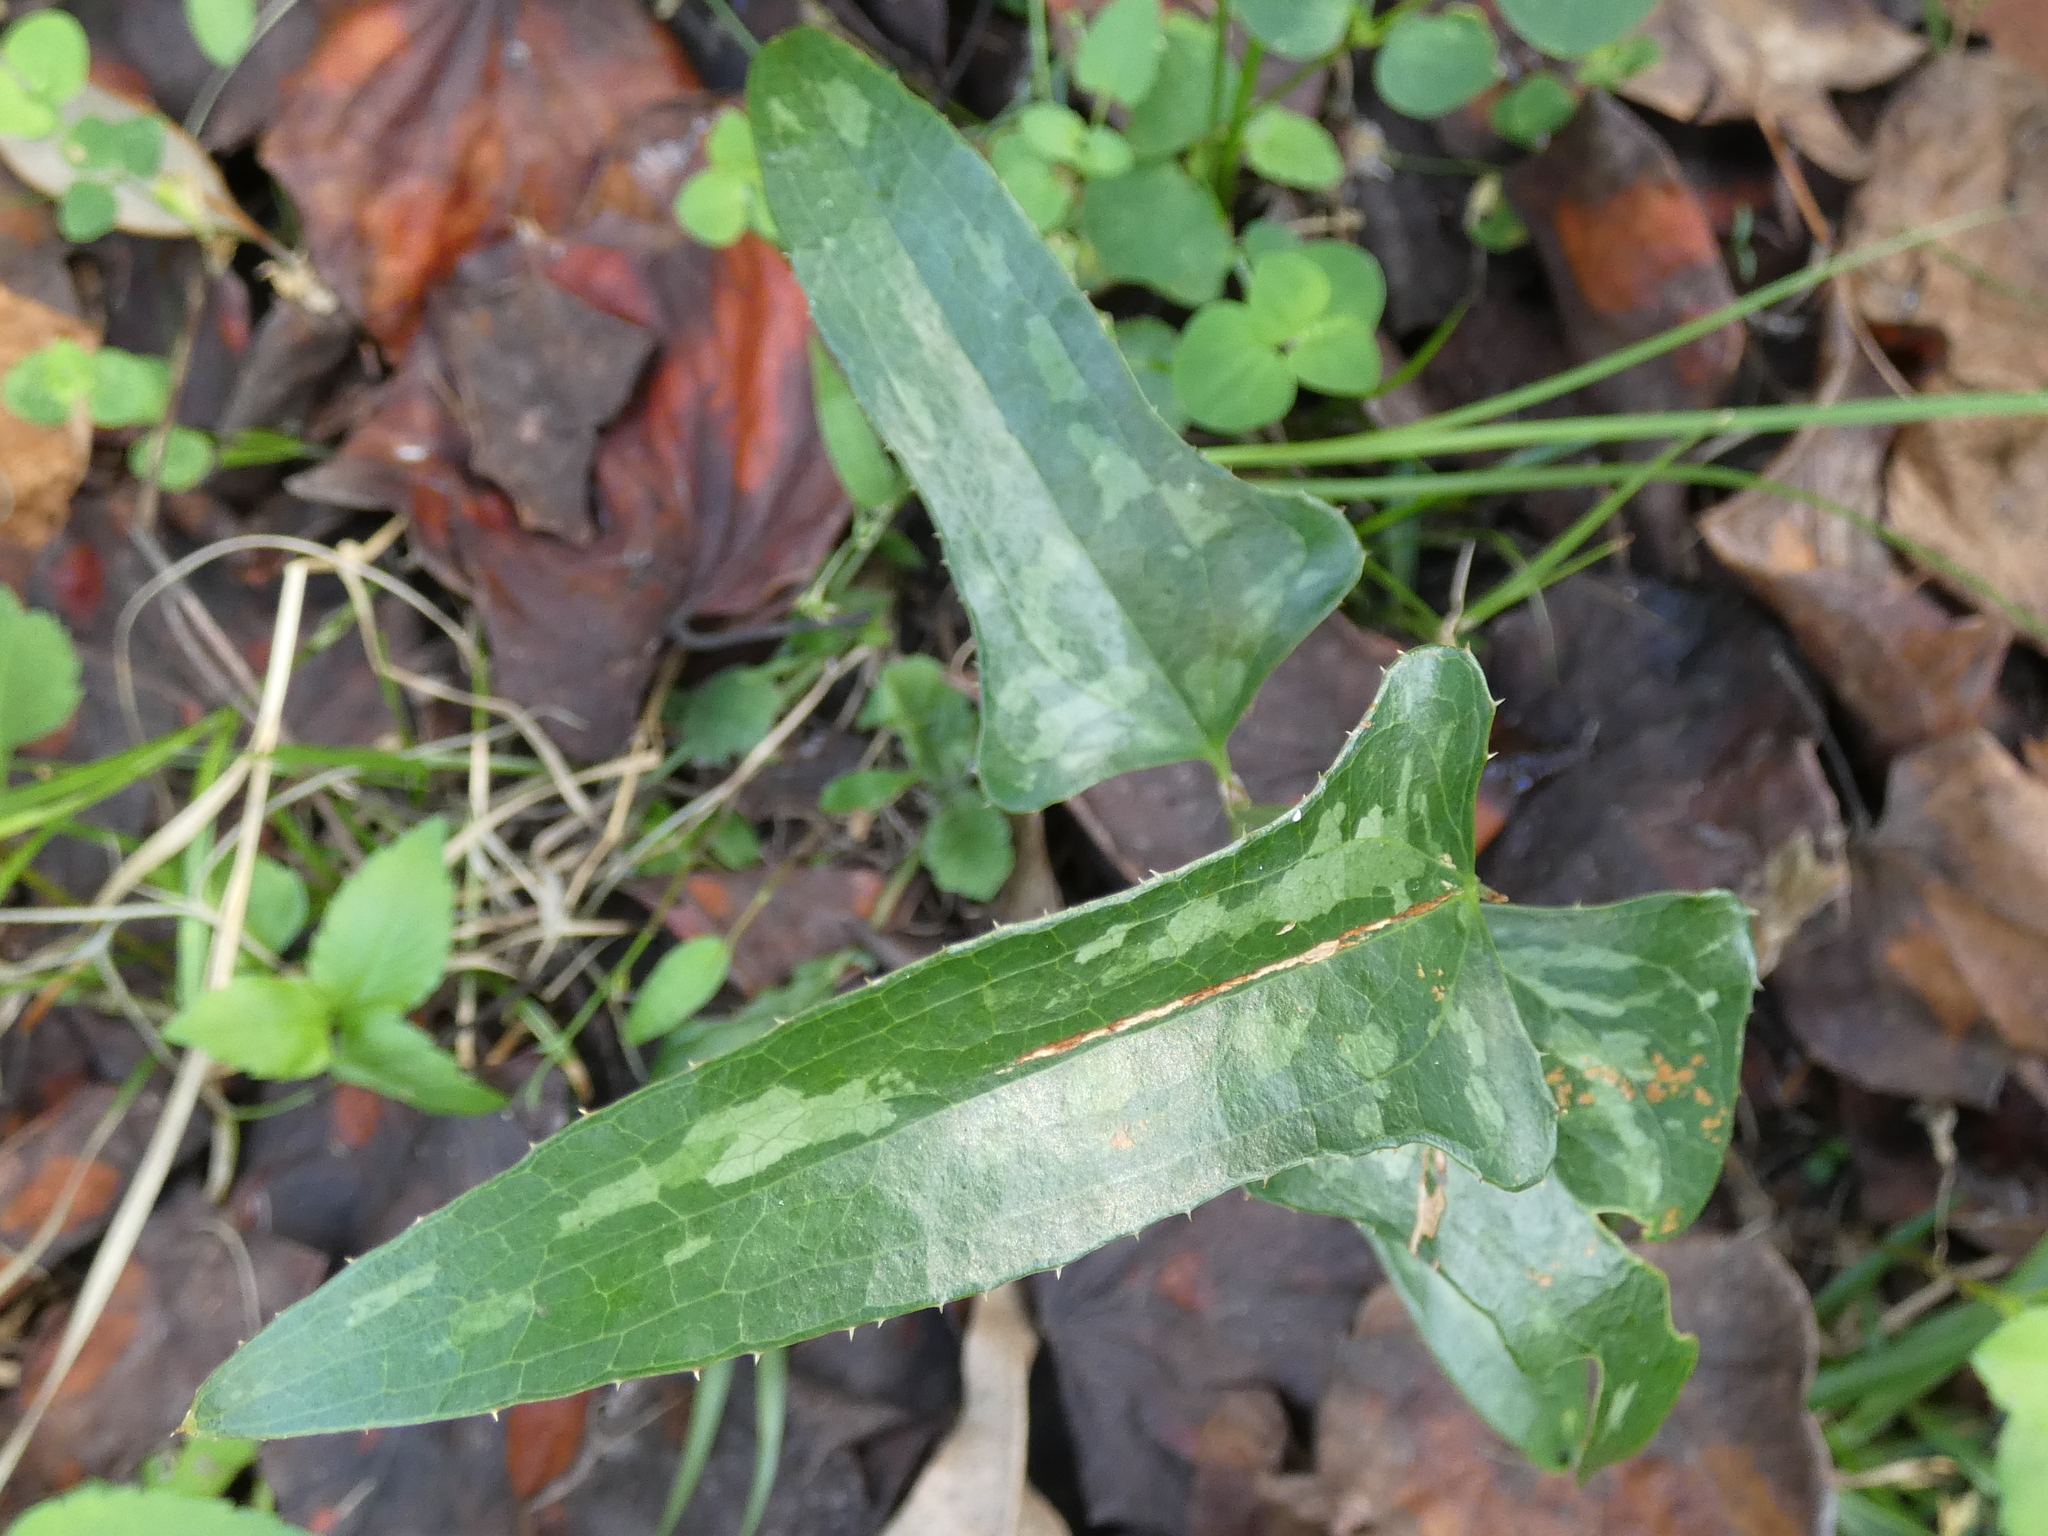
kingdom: Plantae
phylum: Tracheophyta
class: Liliopsida
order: Liliales
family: Smilacaceae
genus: Smilax
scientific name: Smilax bona-nox
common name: Catbrier
